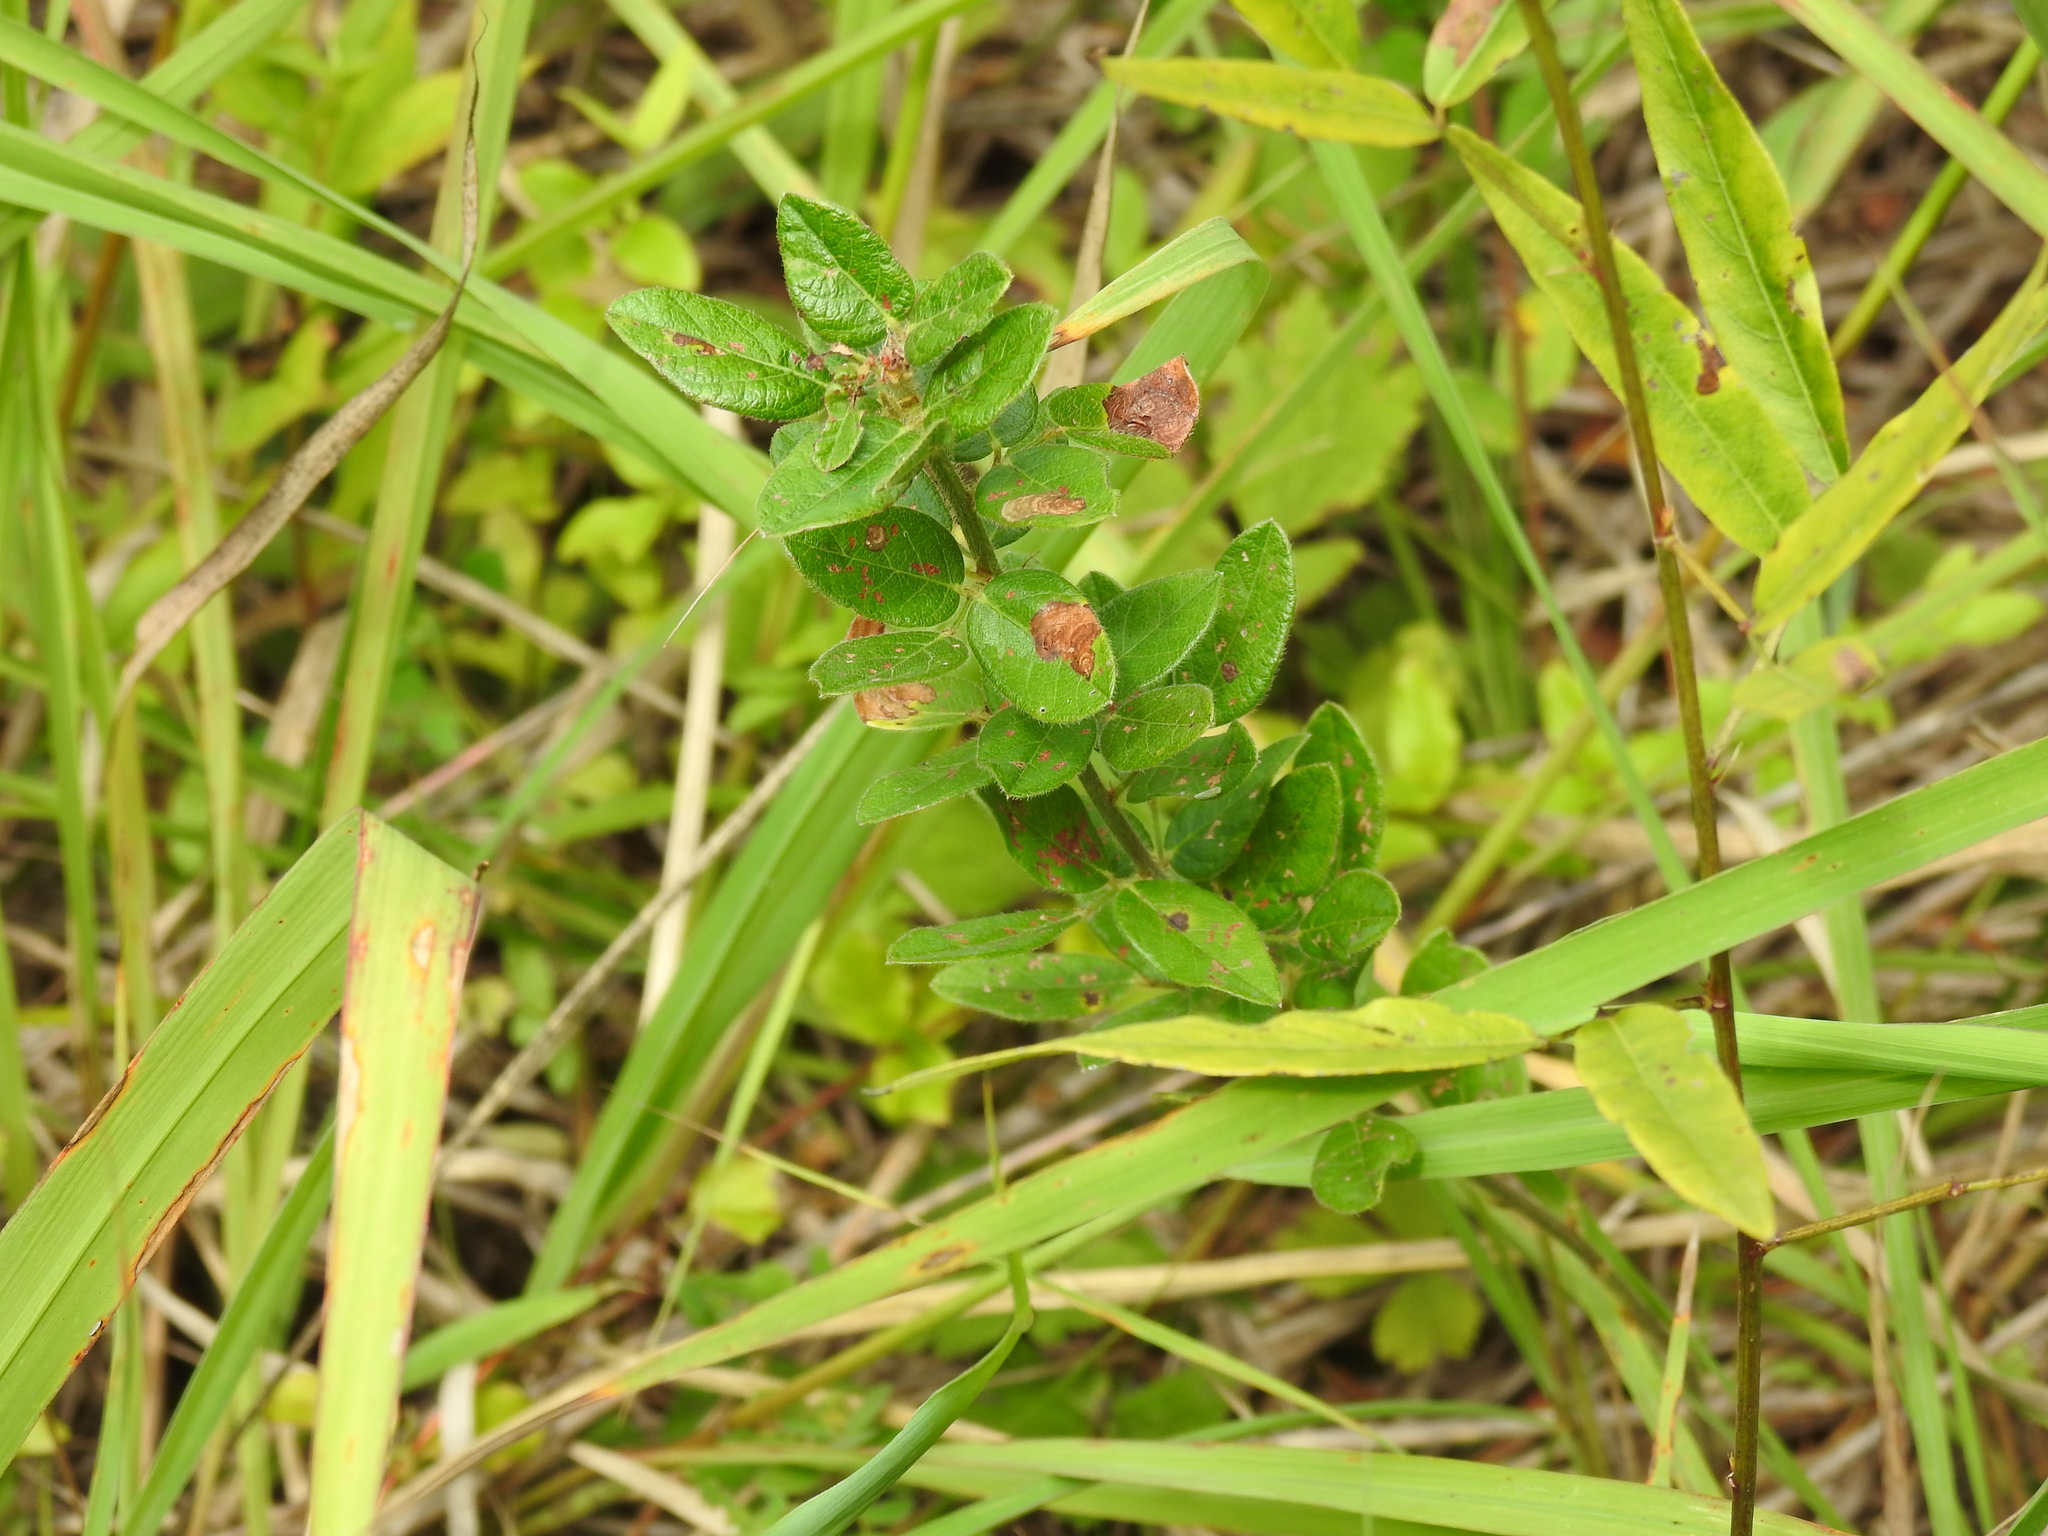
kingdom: Plantae
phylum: Tracheophyta
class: Magnoliopsida
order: Fabales
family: Fabaceae
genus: Desmodium
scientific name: Desmodium ciliare
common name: Hairy small-leaf ticktrefoil
